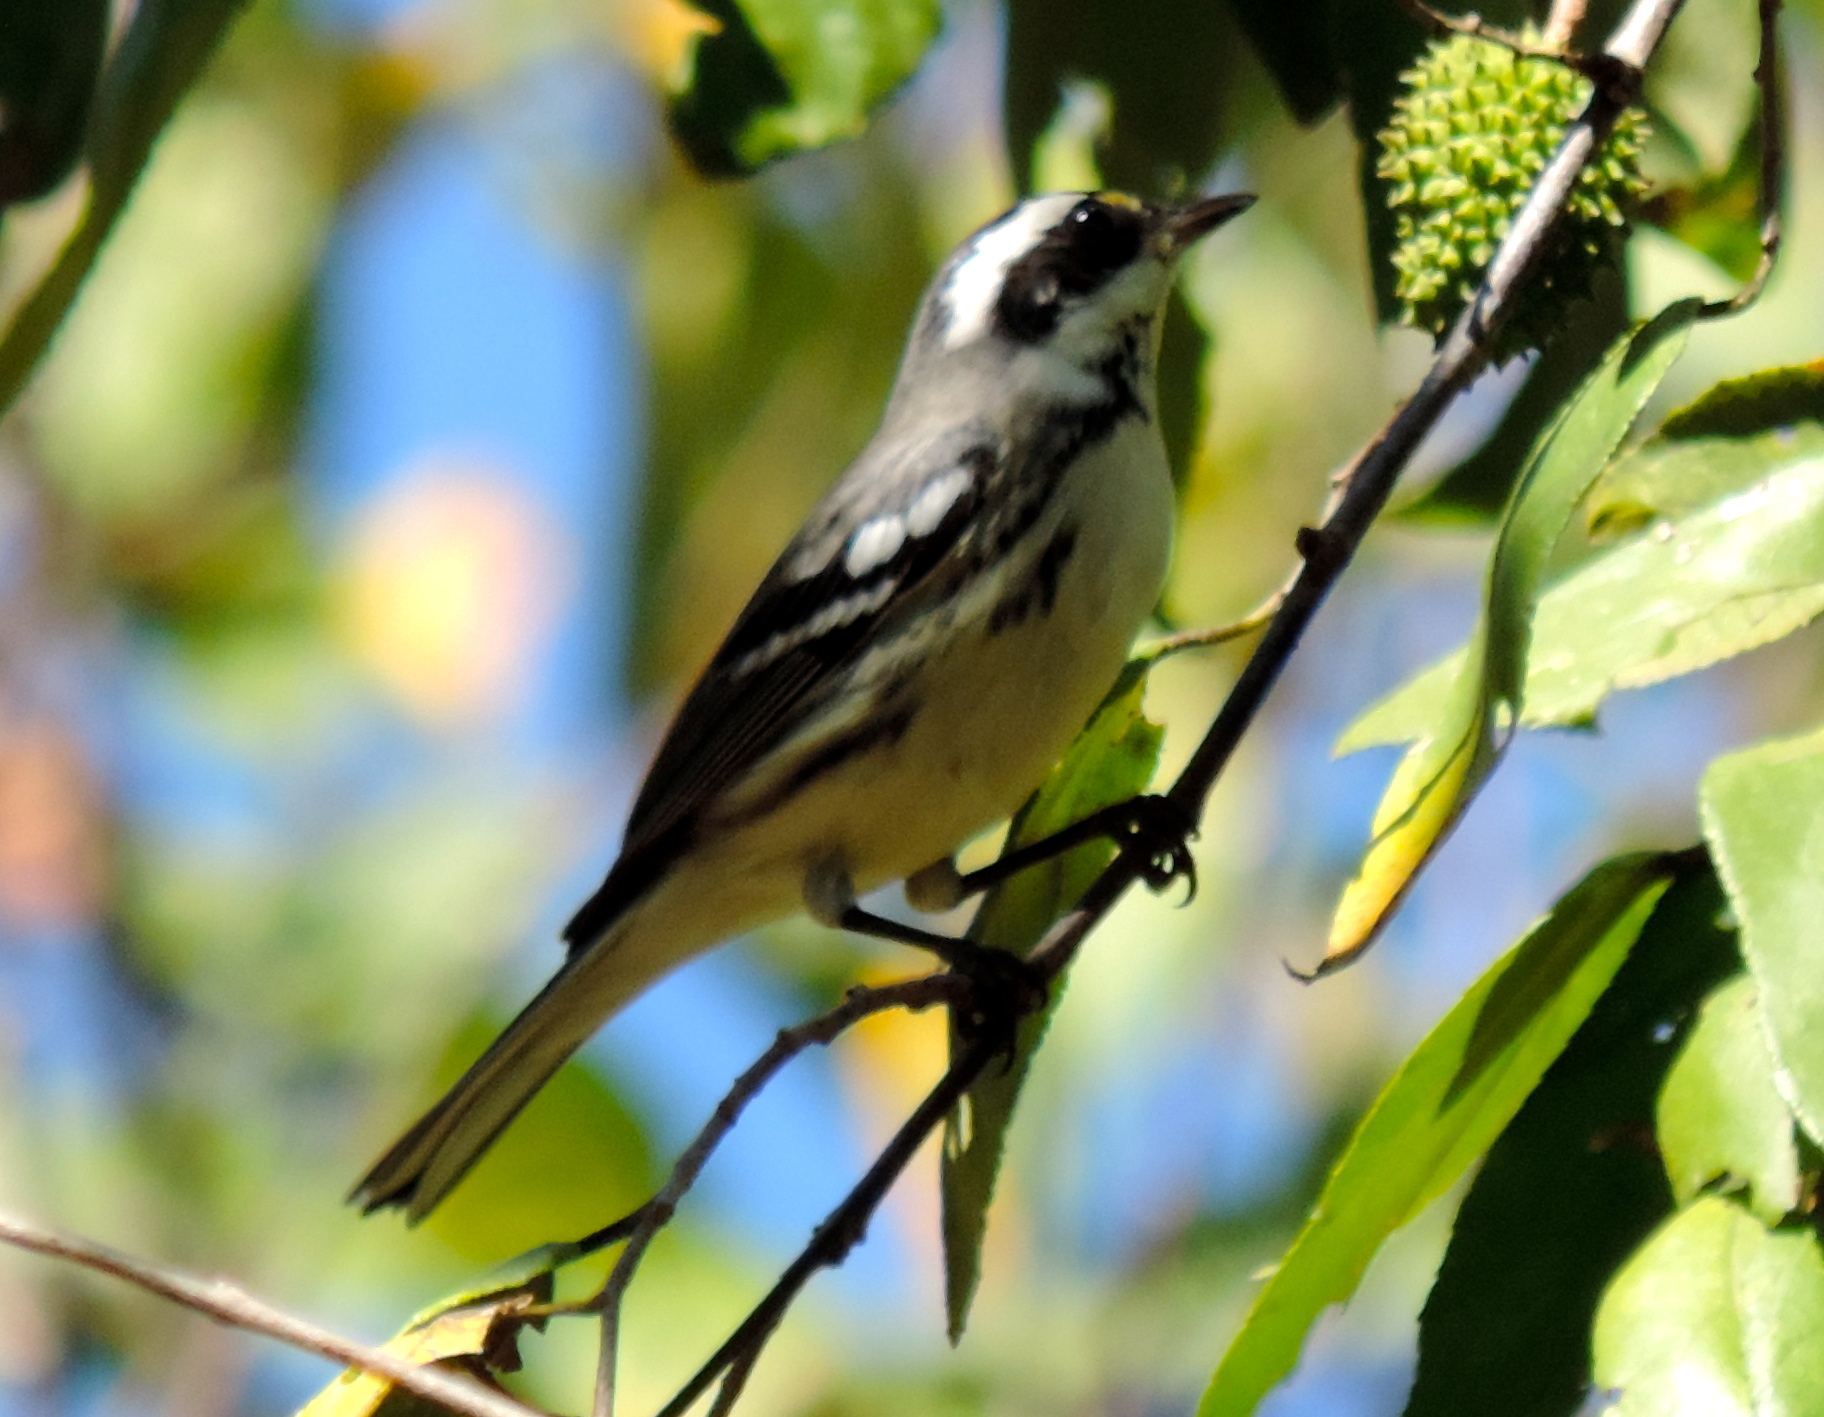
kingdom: Animalia
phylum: Chordata
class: Aves
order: Passeriformes
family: Parulidae
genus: Setophaga
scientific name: Setophaga nigrescens
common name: Black-throated gray warbler
